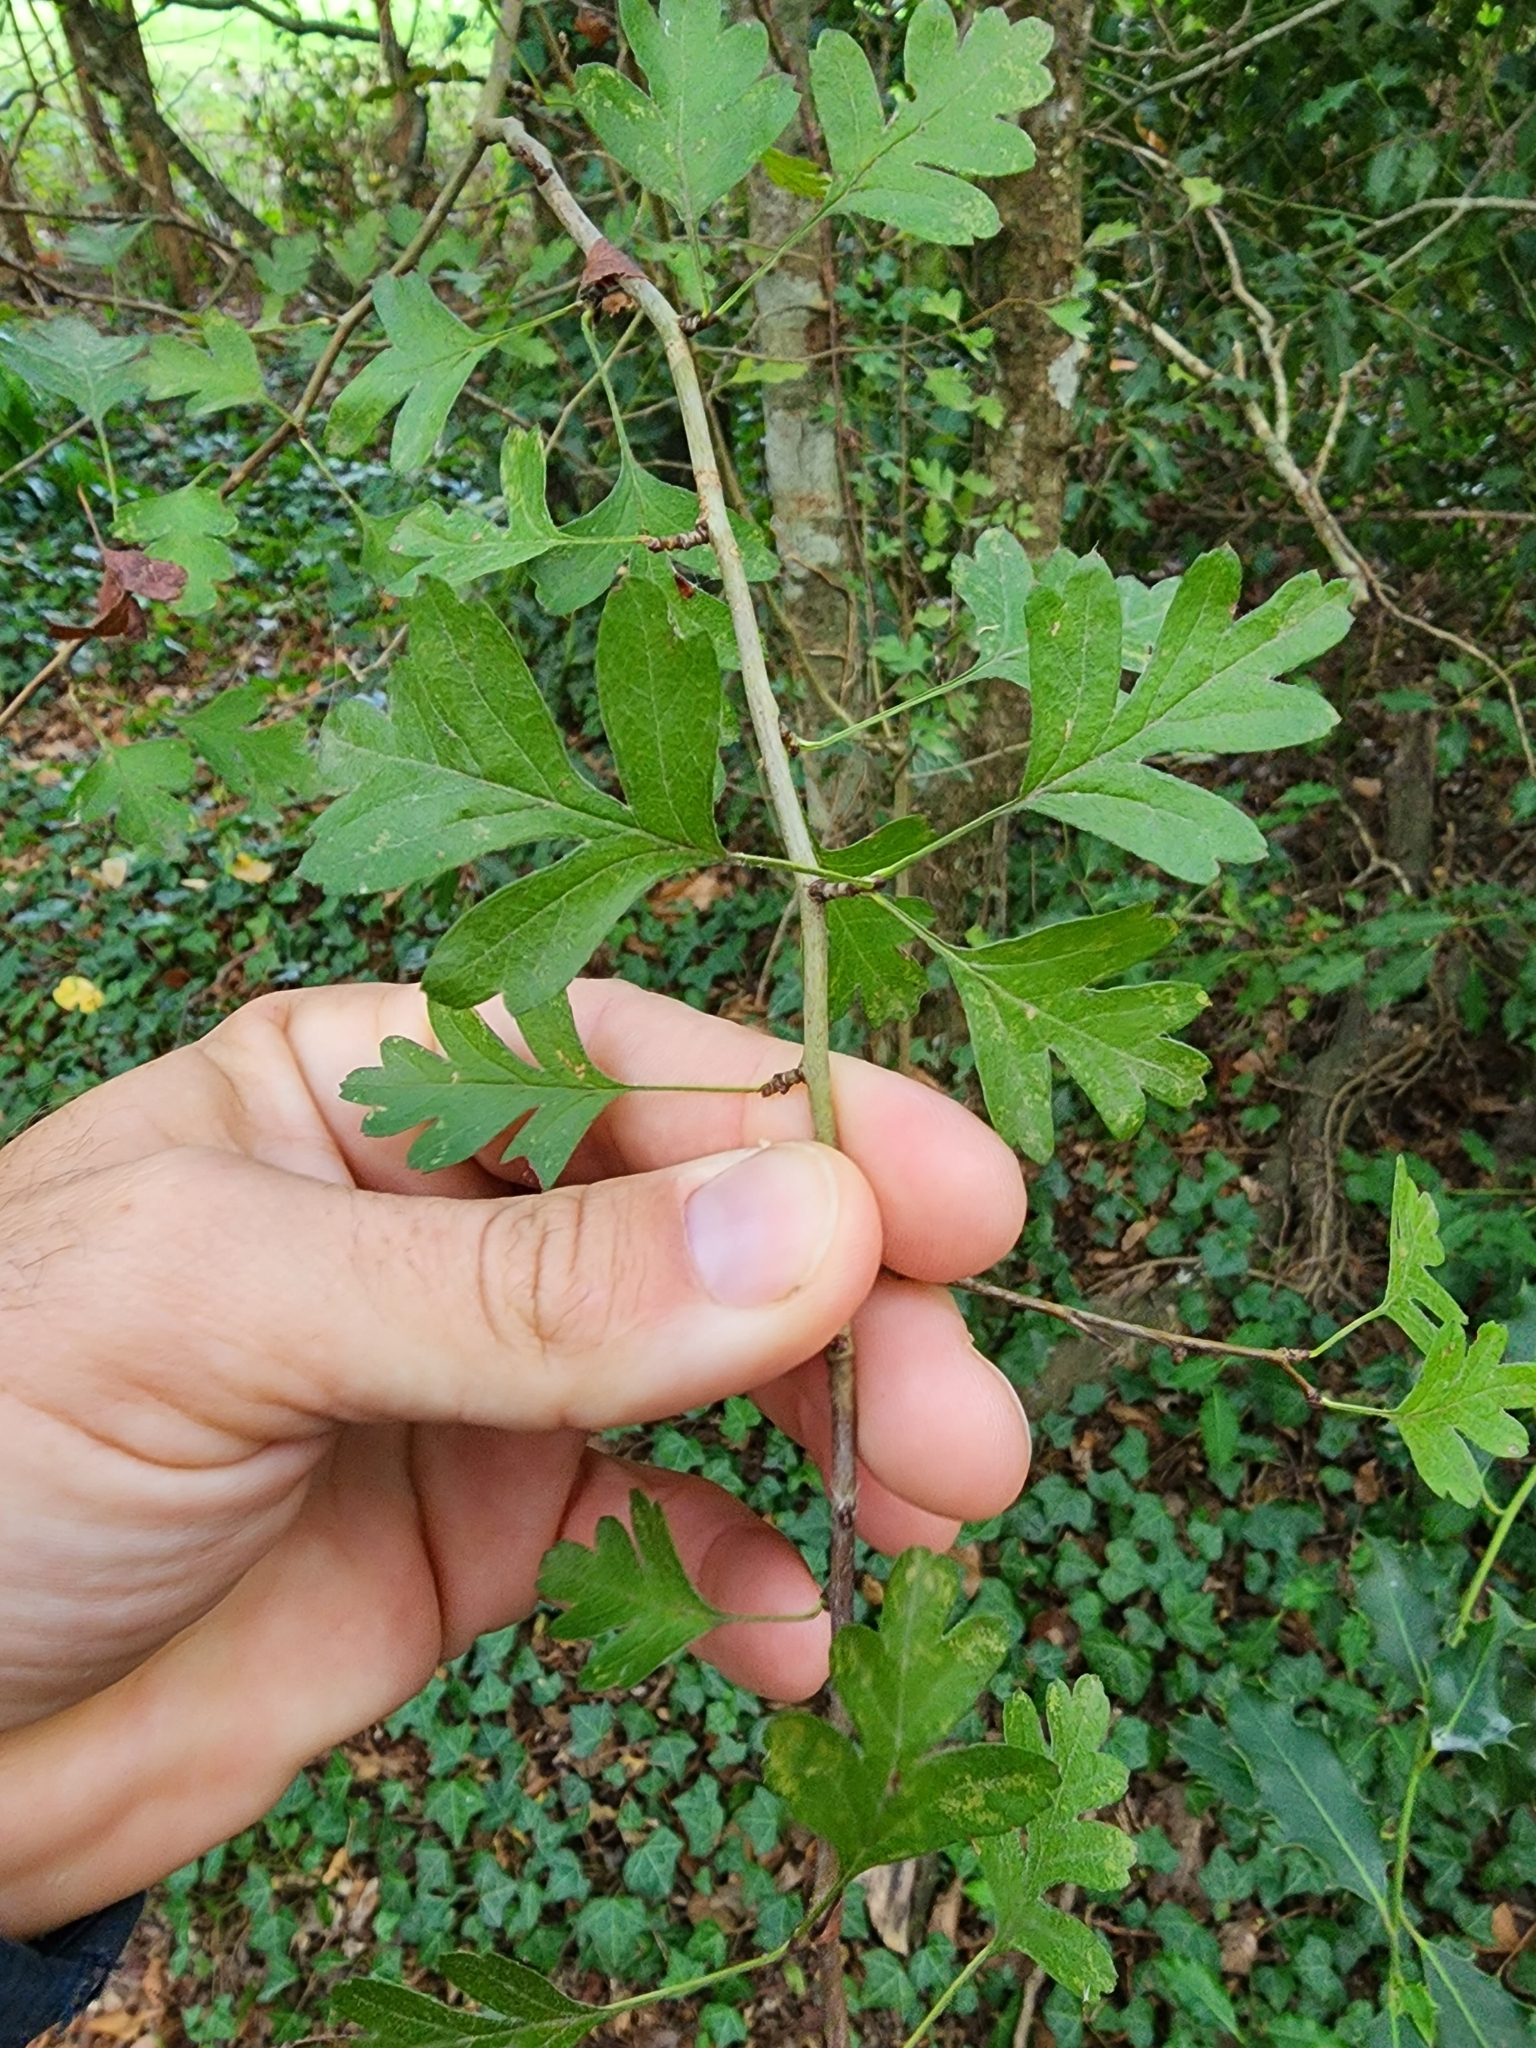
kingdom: Plantae
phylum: Tracheophyta
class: Magnoliopsida
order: Rosales
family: Rosaceae
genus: Crataegus
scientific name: Crataegus monogyna
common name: Hawthorn
